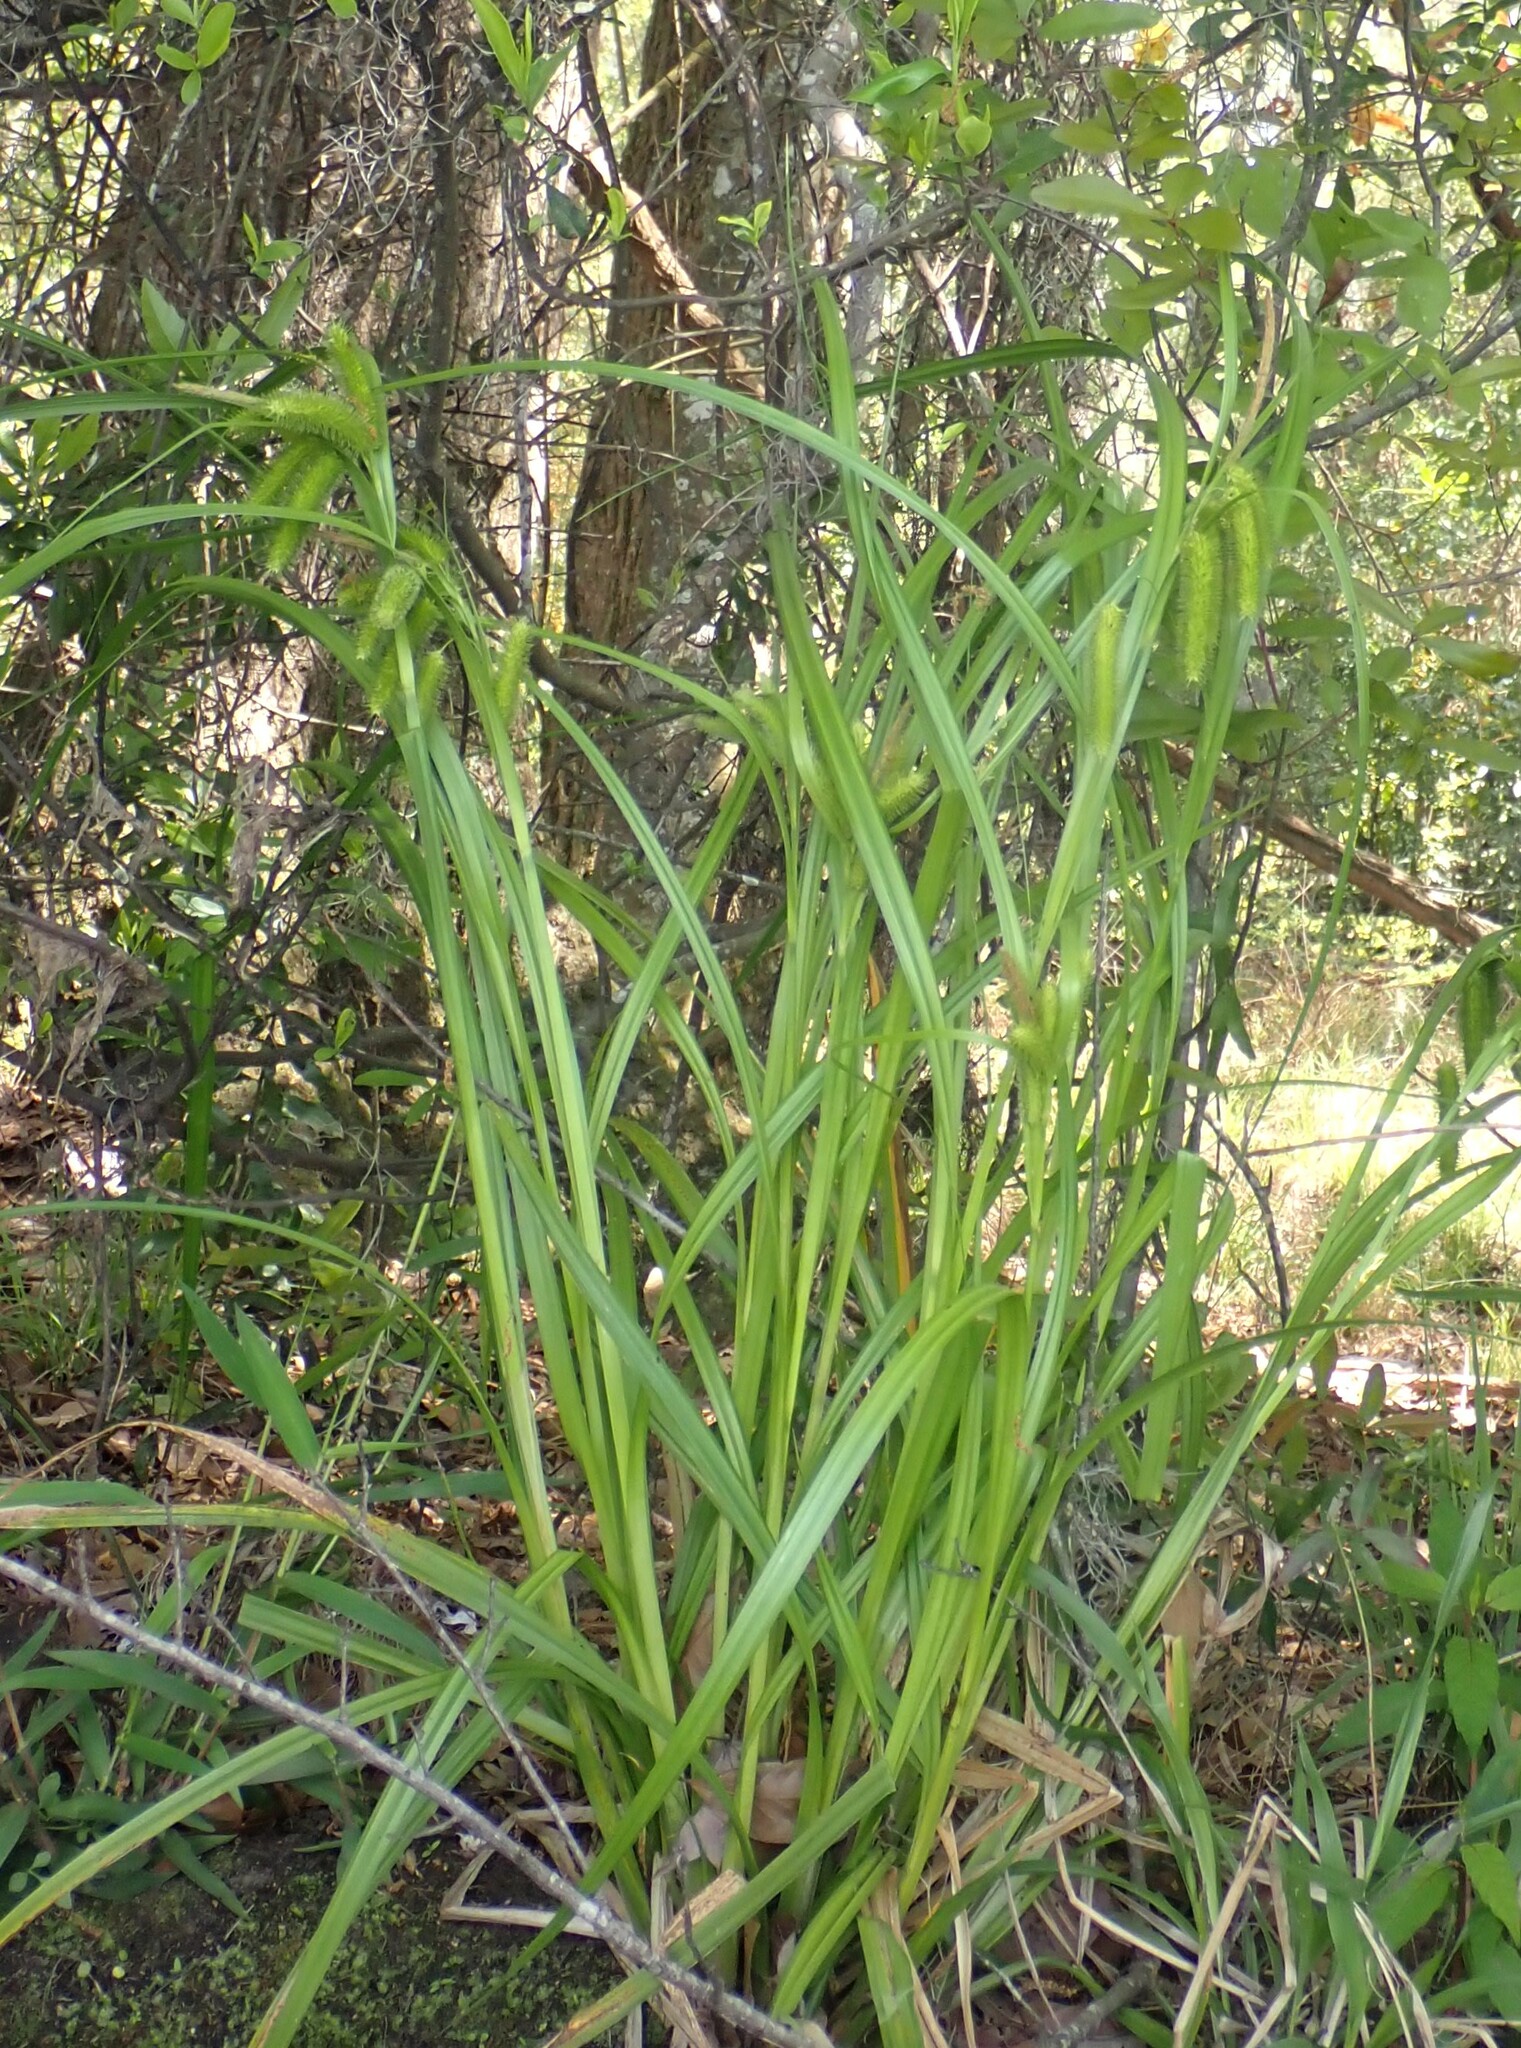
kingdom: Plantae
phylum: Tracheophyta
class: Liliopsida
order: Poales
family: Cyperaceae
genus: Carex
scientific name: Carex comosa
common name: Bristly sedge
